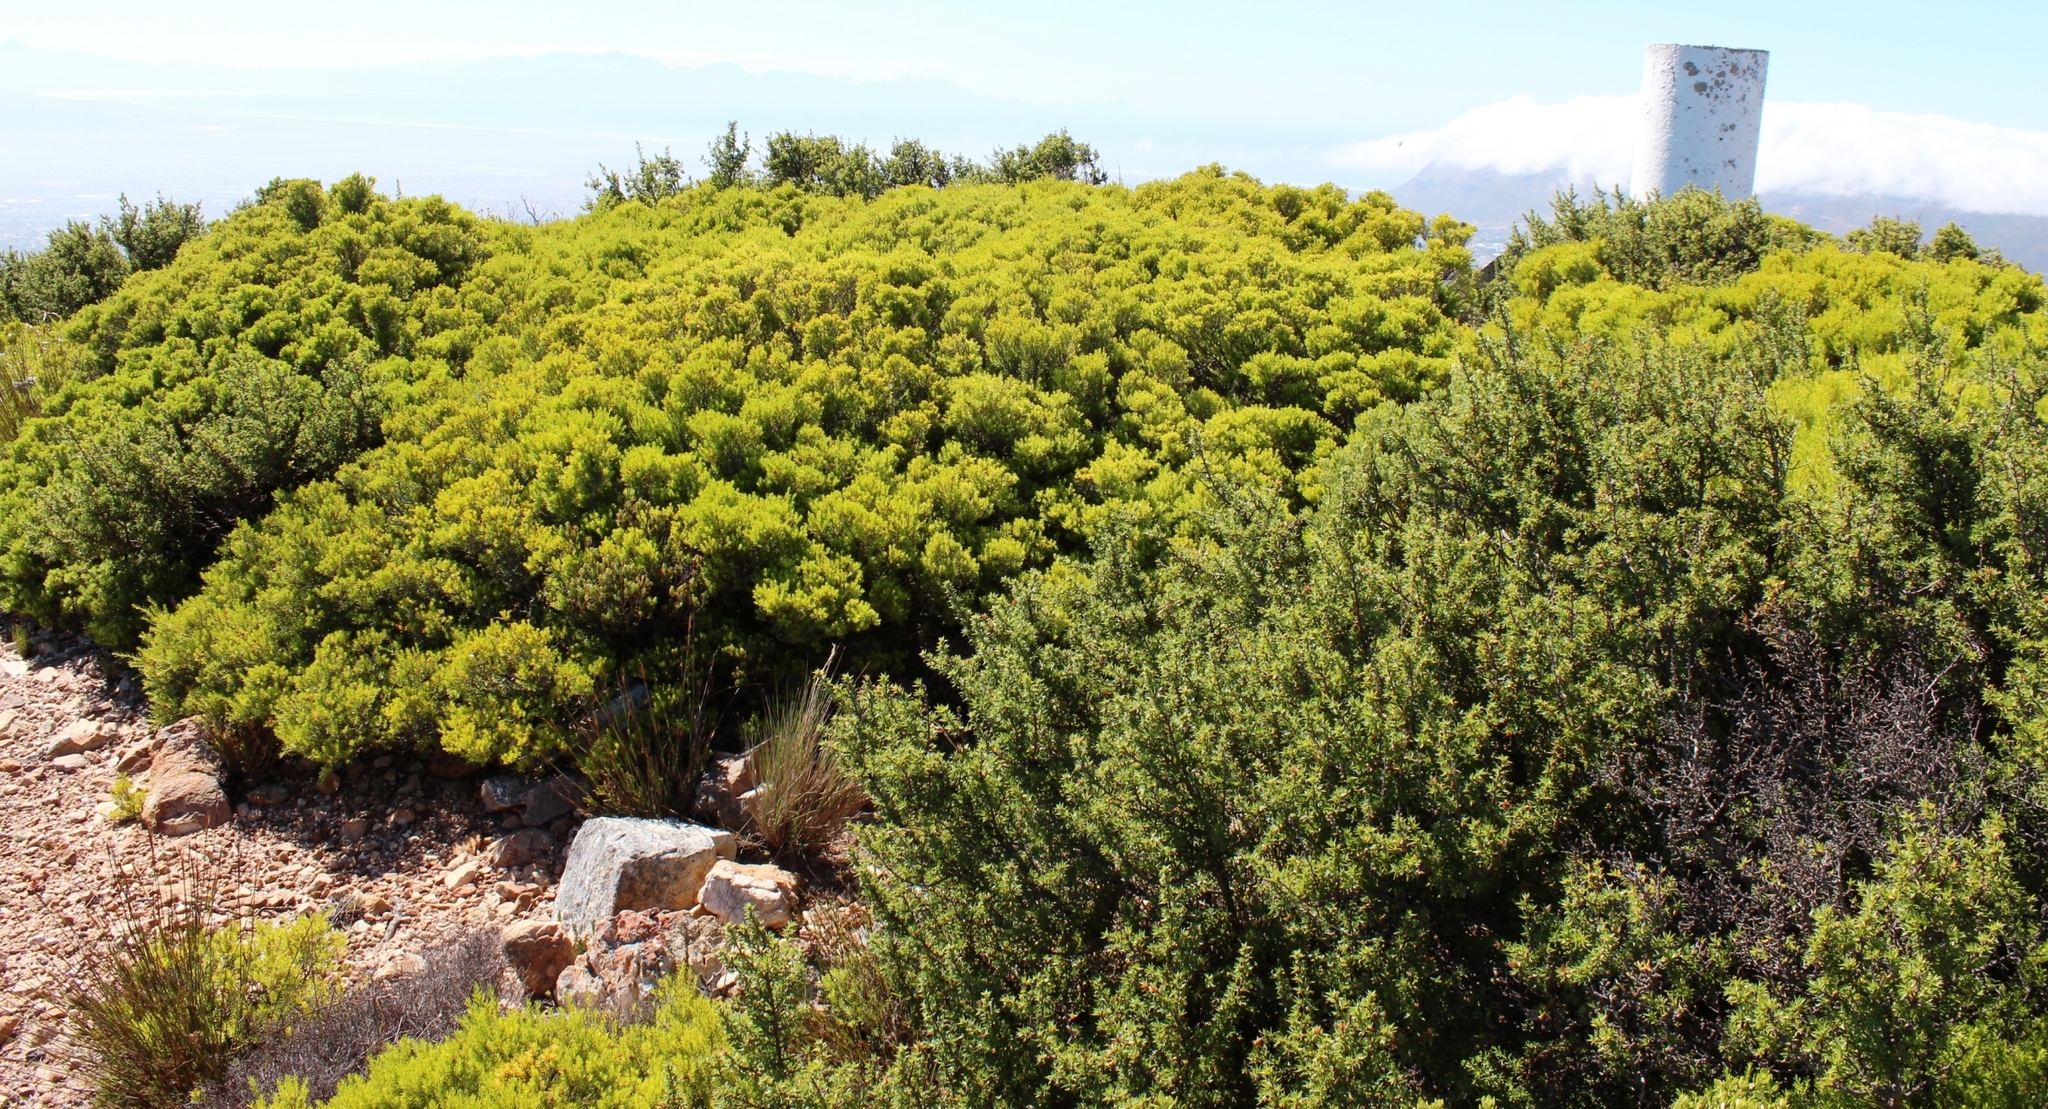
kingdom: Plantae
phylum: Tracheophyta
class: Magnoliopsida
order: Sapindales
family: Rutaceae
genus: Coleonema
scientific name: Coleonema album
